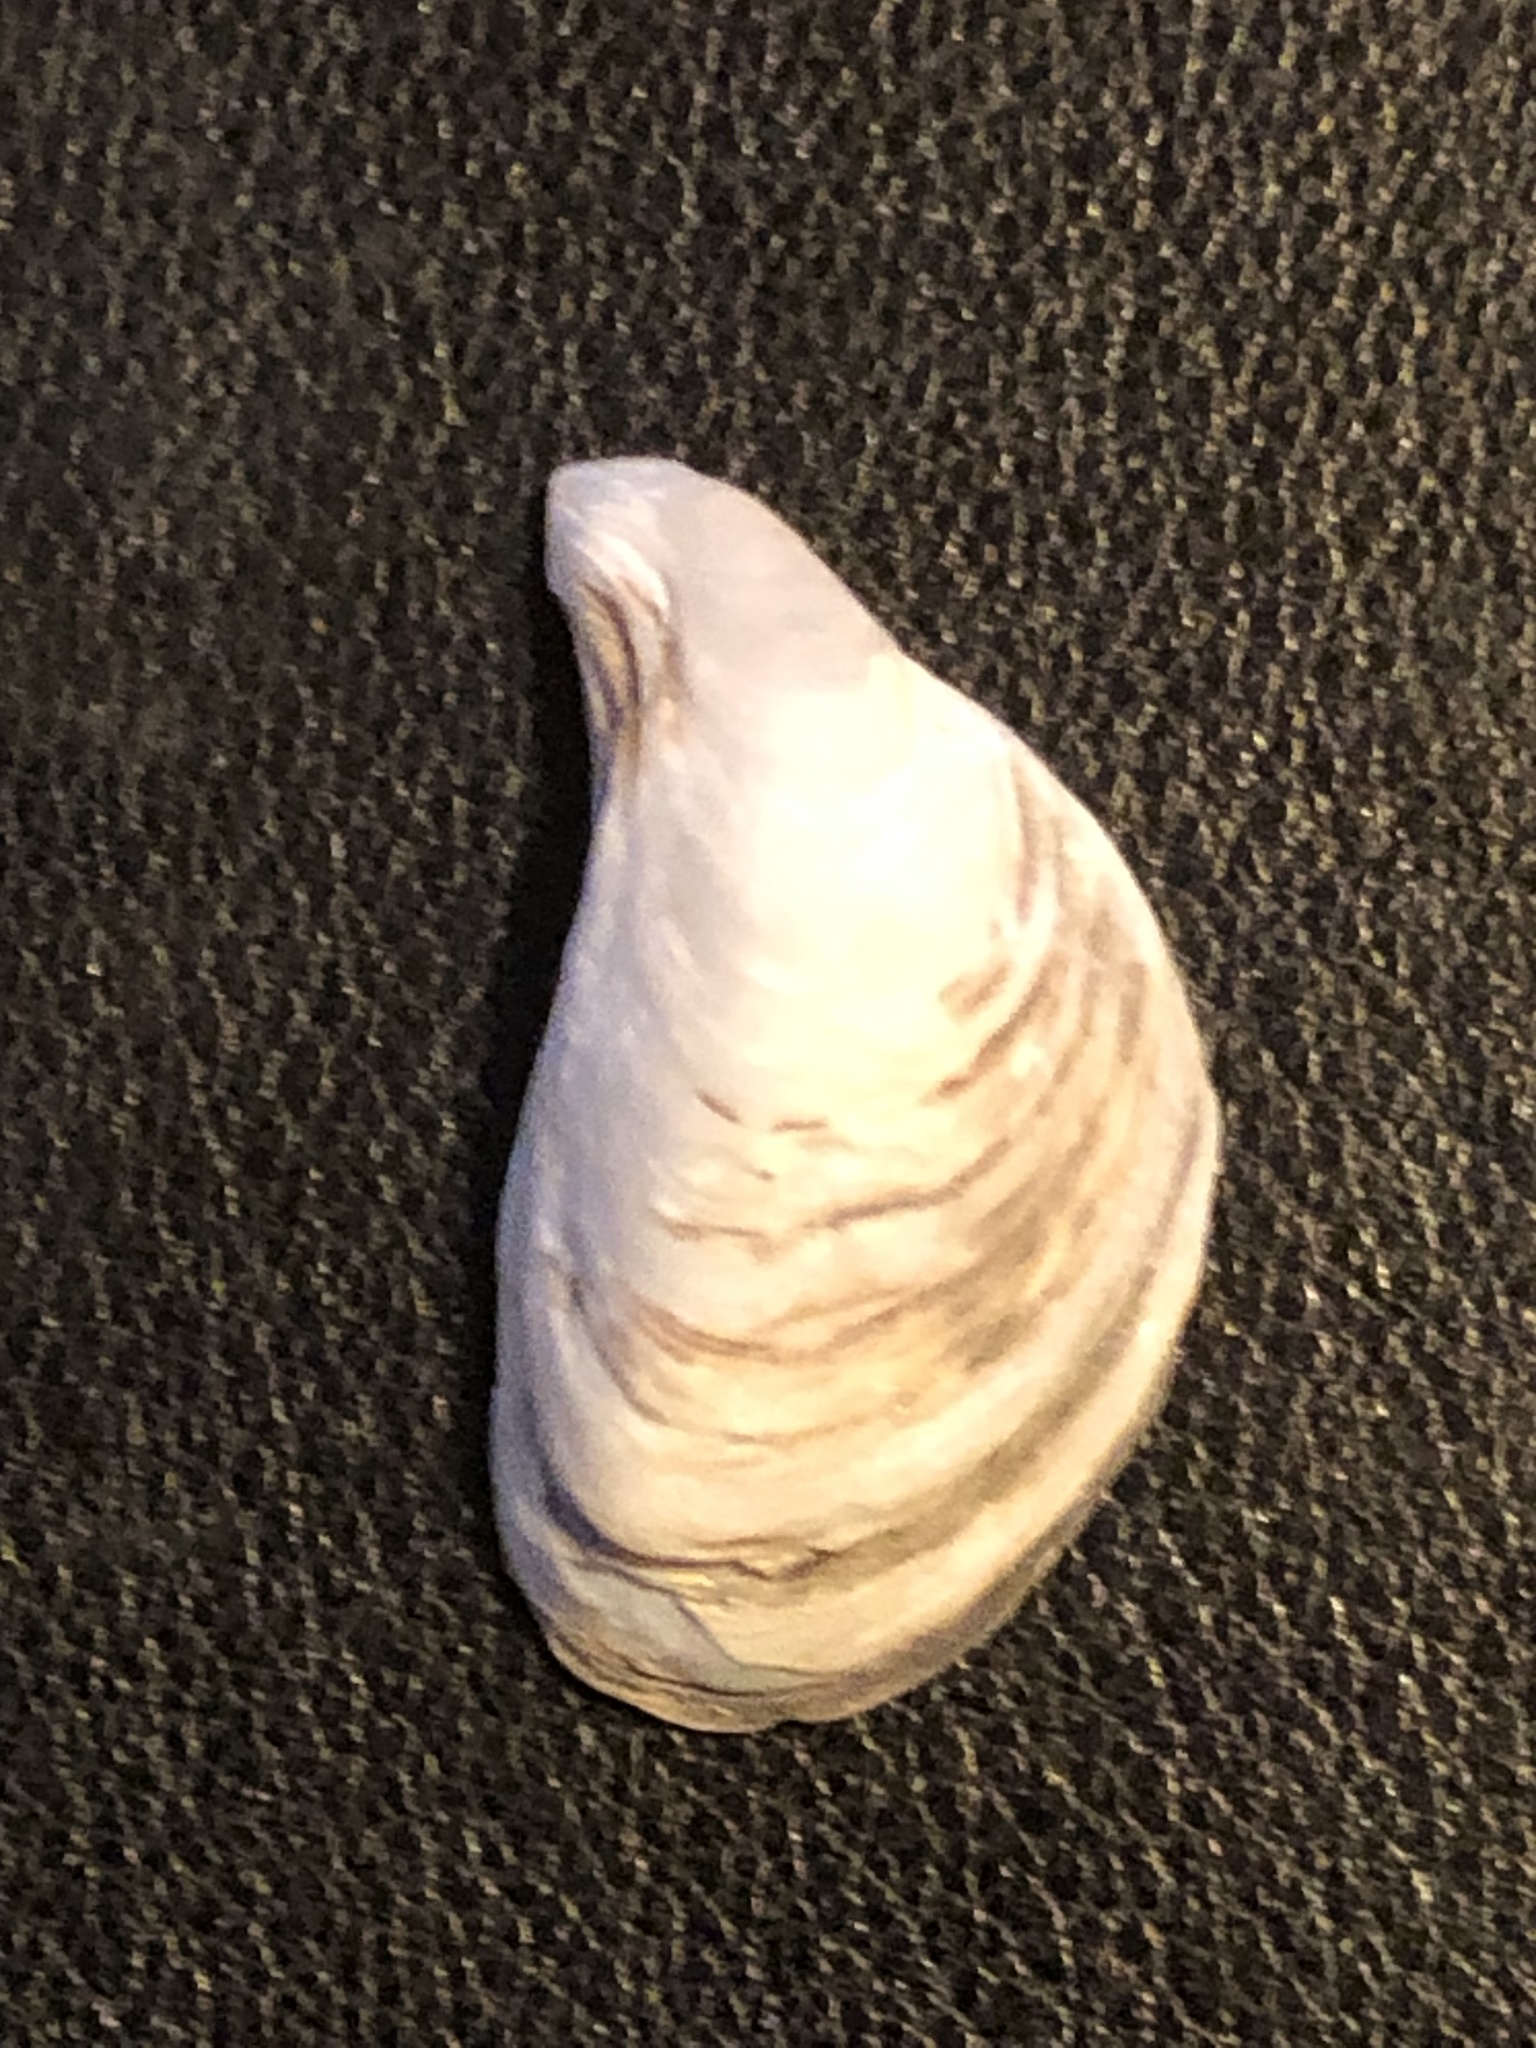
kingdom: Animalia
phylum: Mollusca
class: Bivalvia
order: Myida
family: Dreissenidae
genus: Dreissena
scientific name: Dreissena bugensis
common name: Quagga mussel
